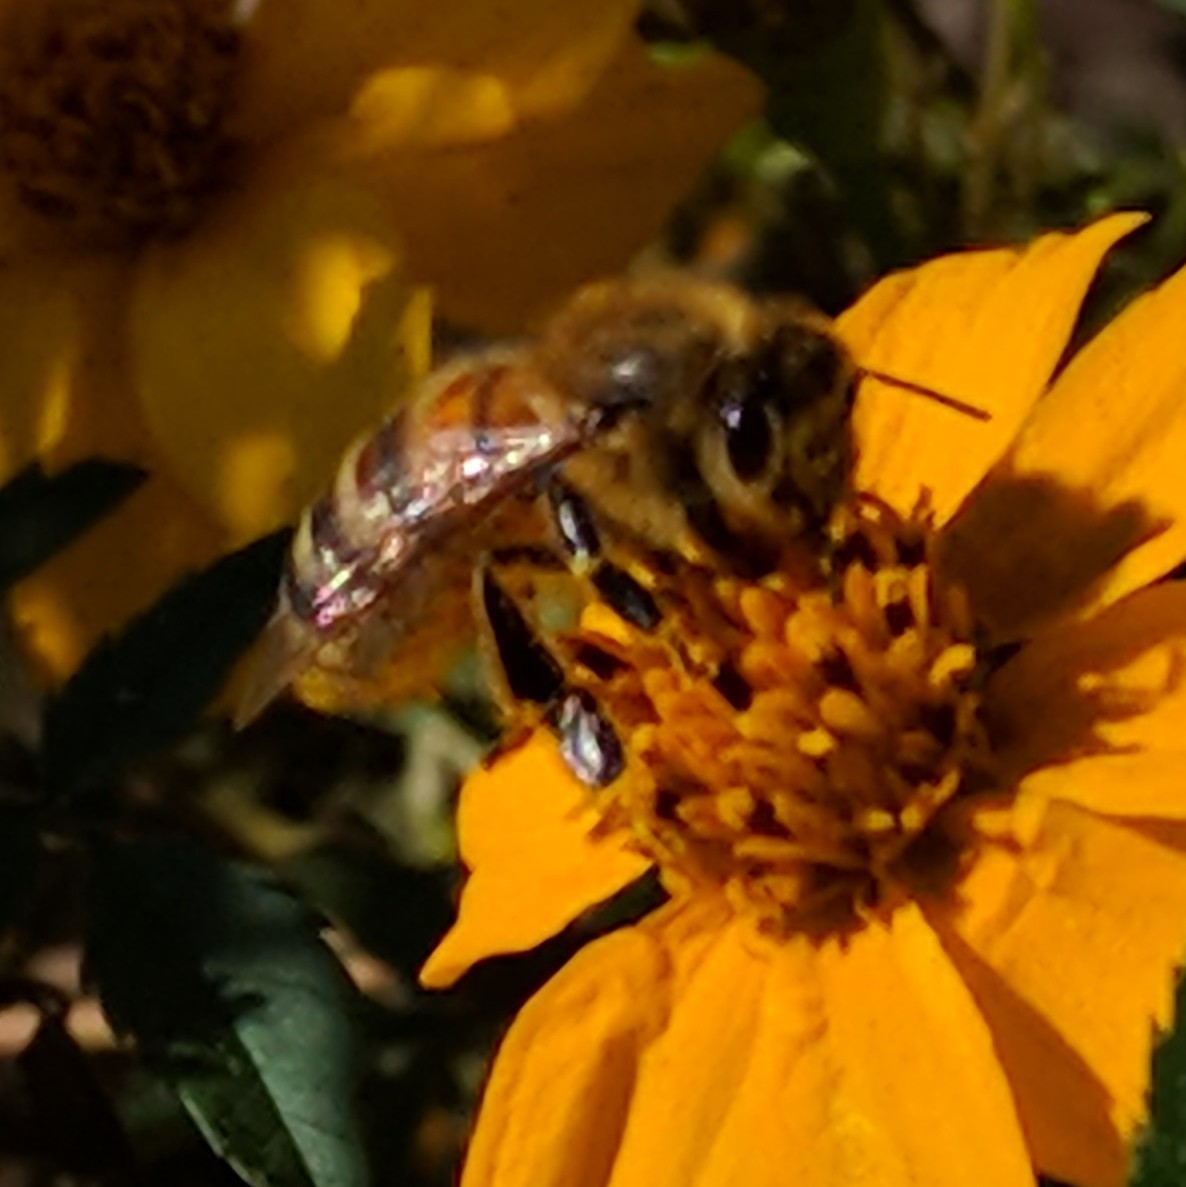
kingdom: Animalia
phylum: Arthropoda
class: Insecta
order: Hymenoptera
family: Apidae
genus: Apis
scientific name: Apis mellifera
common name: Honey bee
